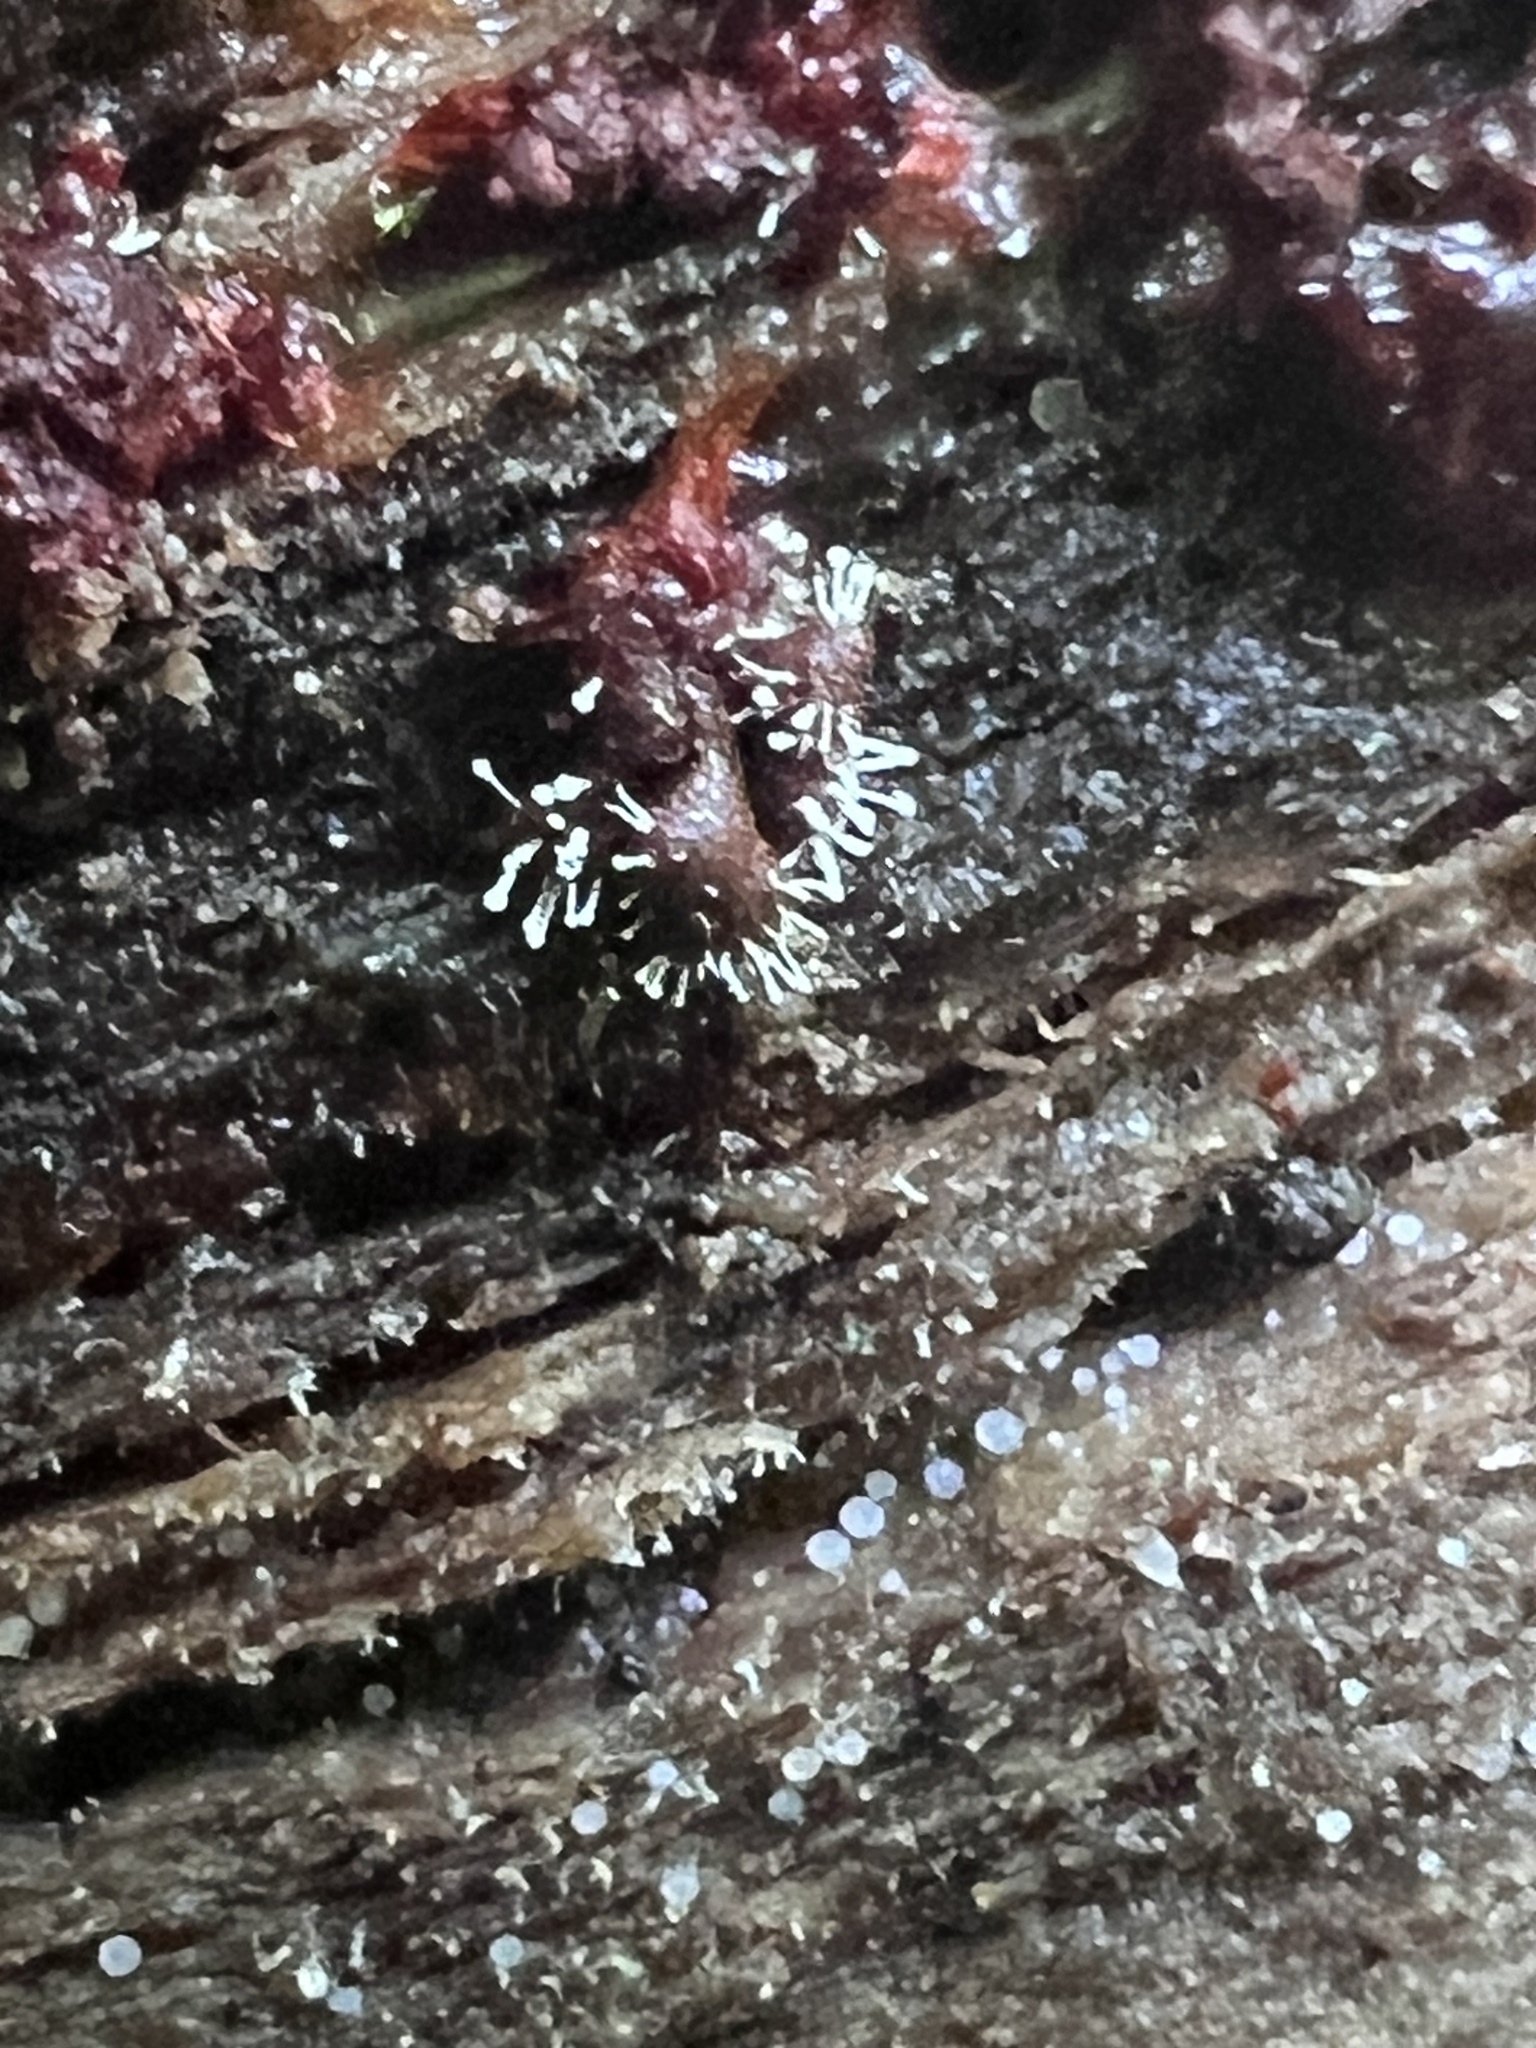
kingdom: Protozoa
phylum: Mycetozoa
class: Myxomycetes
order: Trichiales
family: Trichiaceae
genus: Metatrichia
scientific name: Metatrichia vesparia
